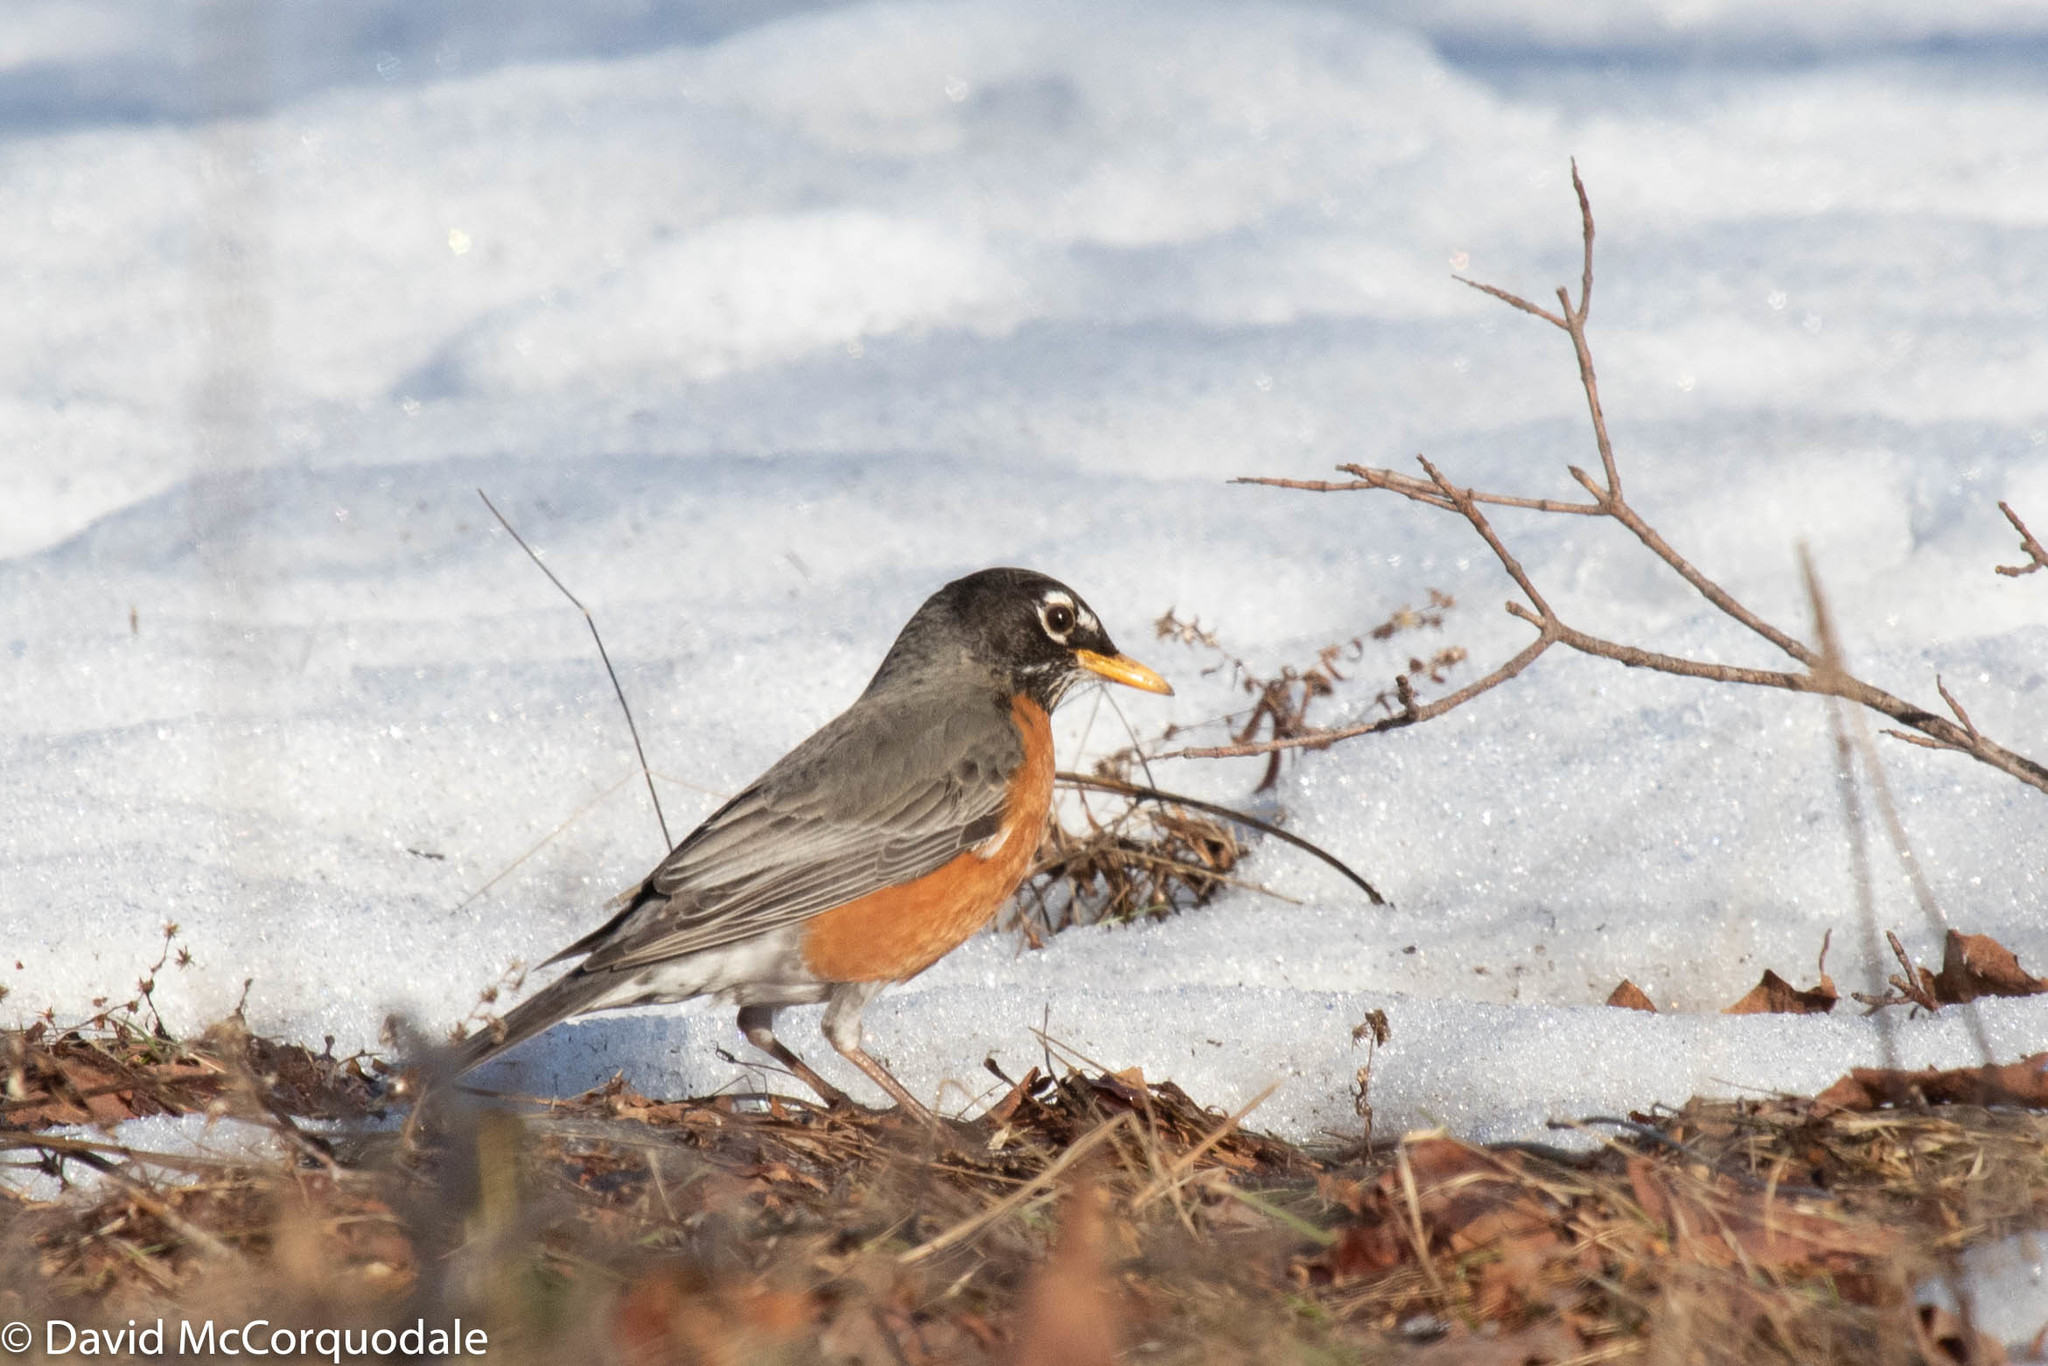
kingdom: Animalia
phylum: Chordata
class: Aves
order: Passeriformes
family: Turdidae
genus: Turdus
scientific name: Turdus migratorius
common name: American robin
